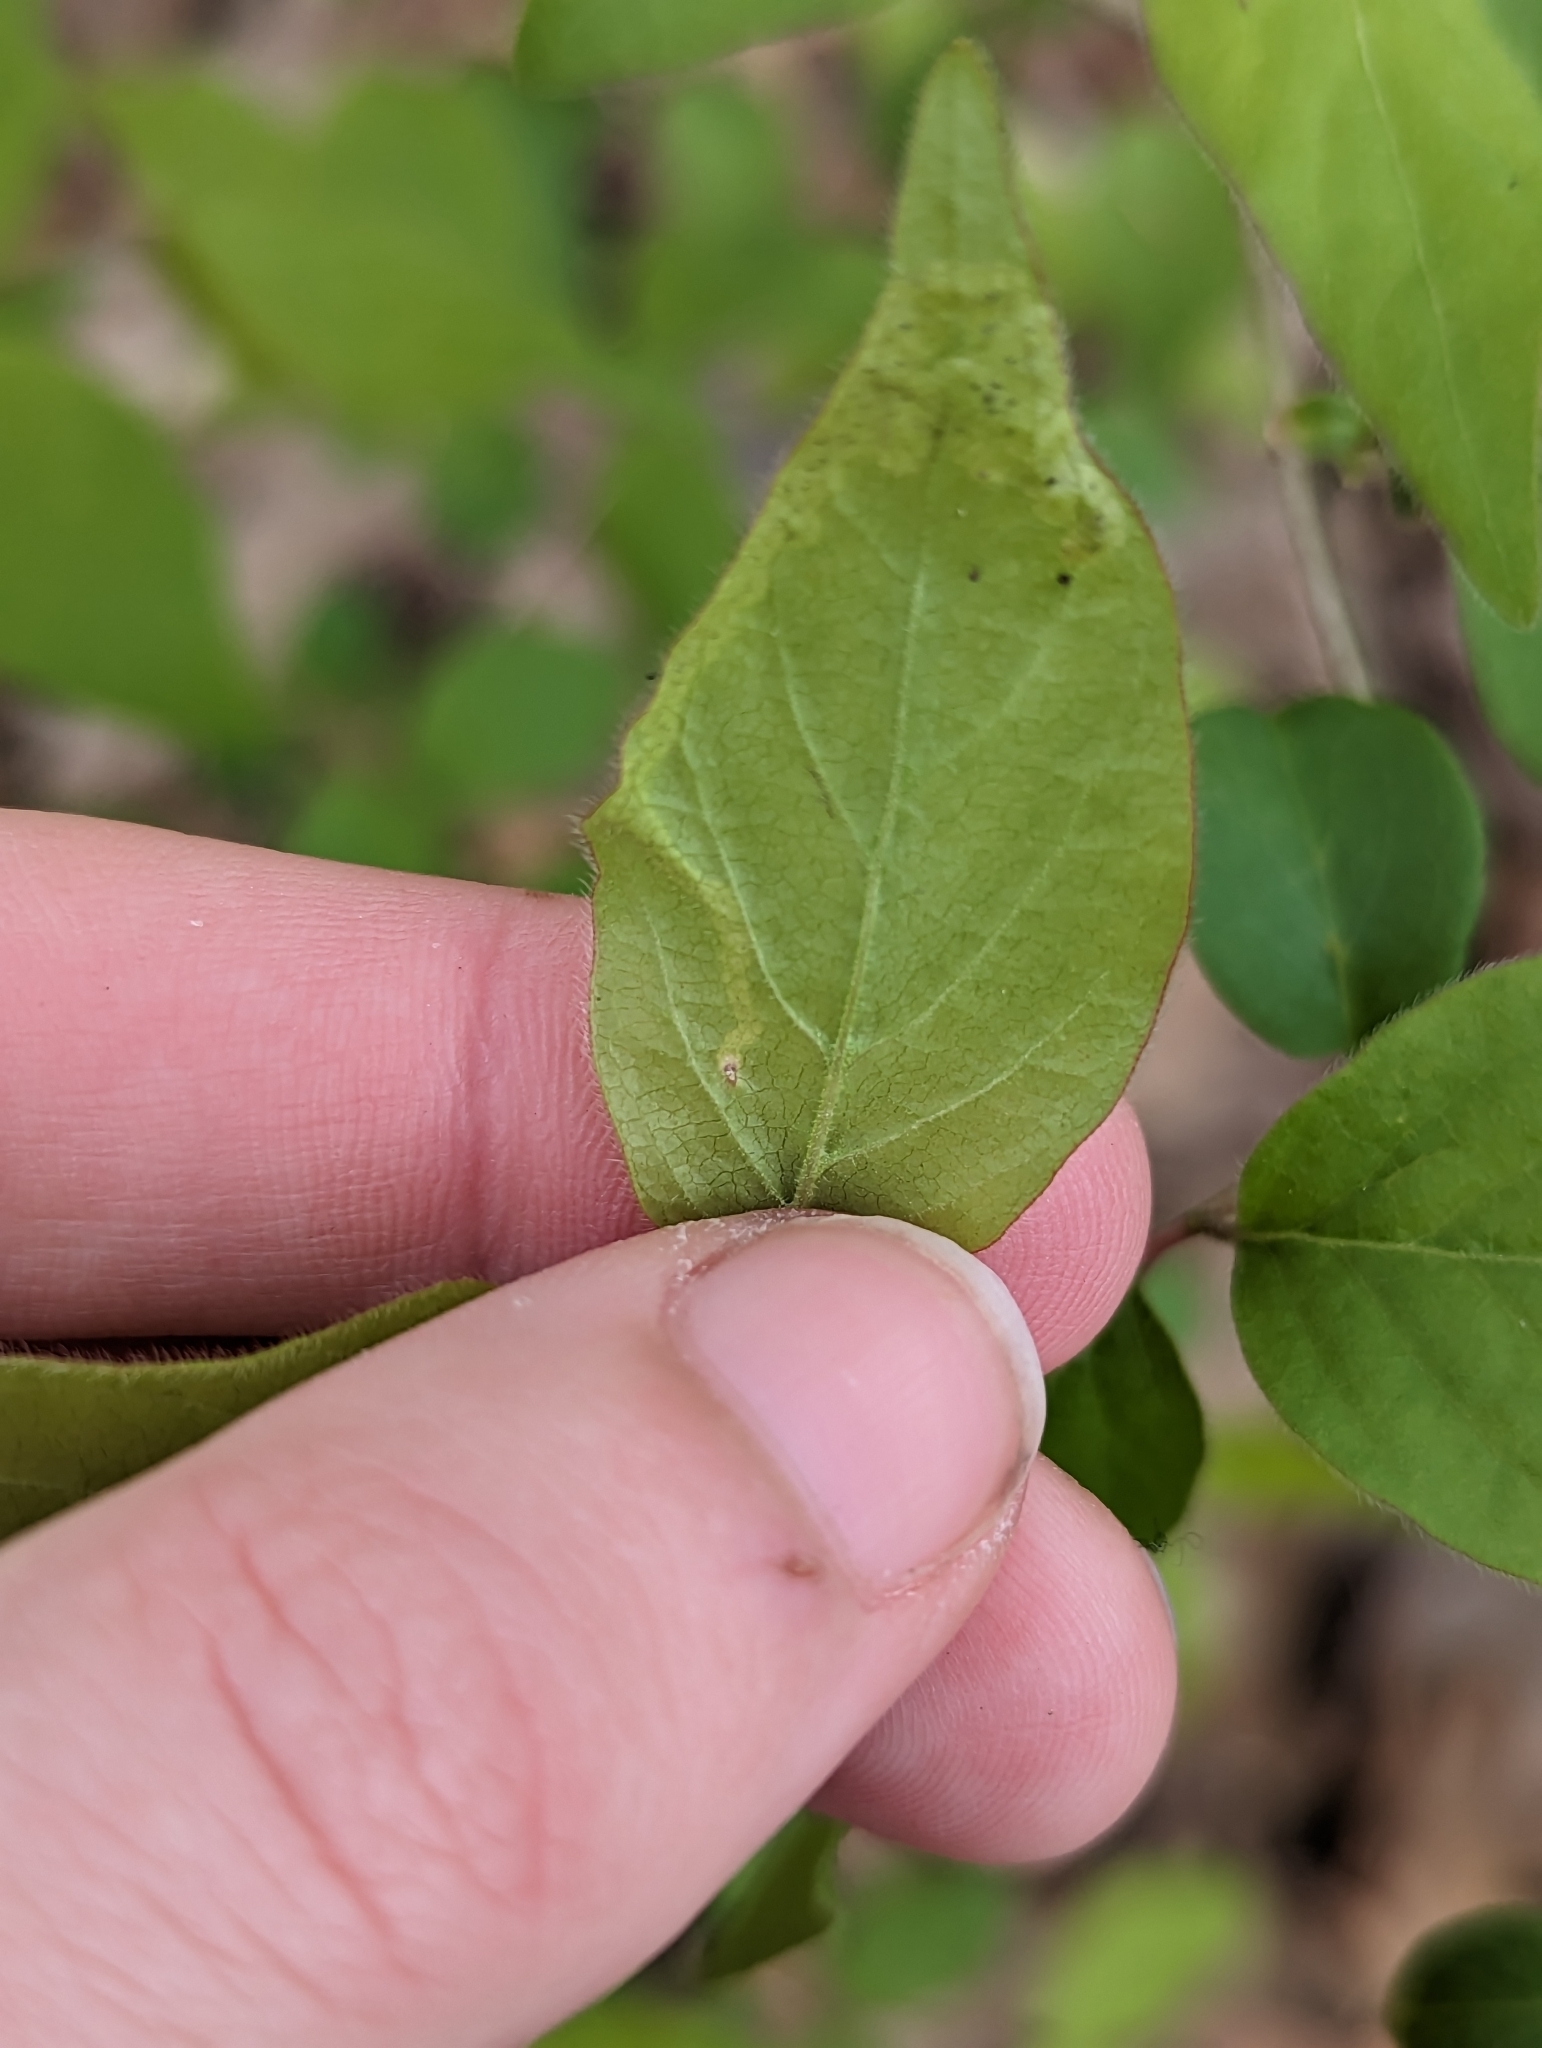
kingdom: Plantae
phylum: Tracheophyta
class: Magnoliopsida
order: Dipsacales
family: Caprifoliaceae
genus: Lonicera
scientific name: Lonicera maackii
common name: Amur honeysuckle
